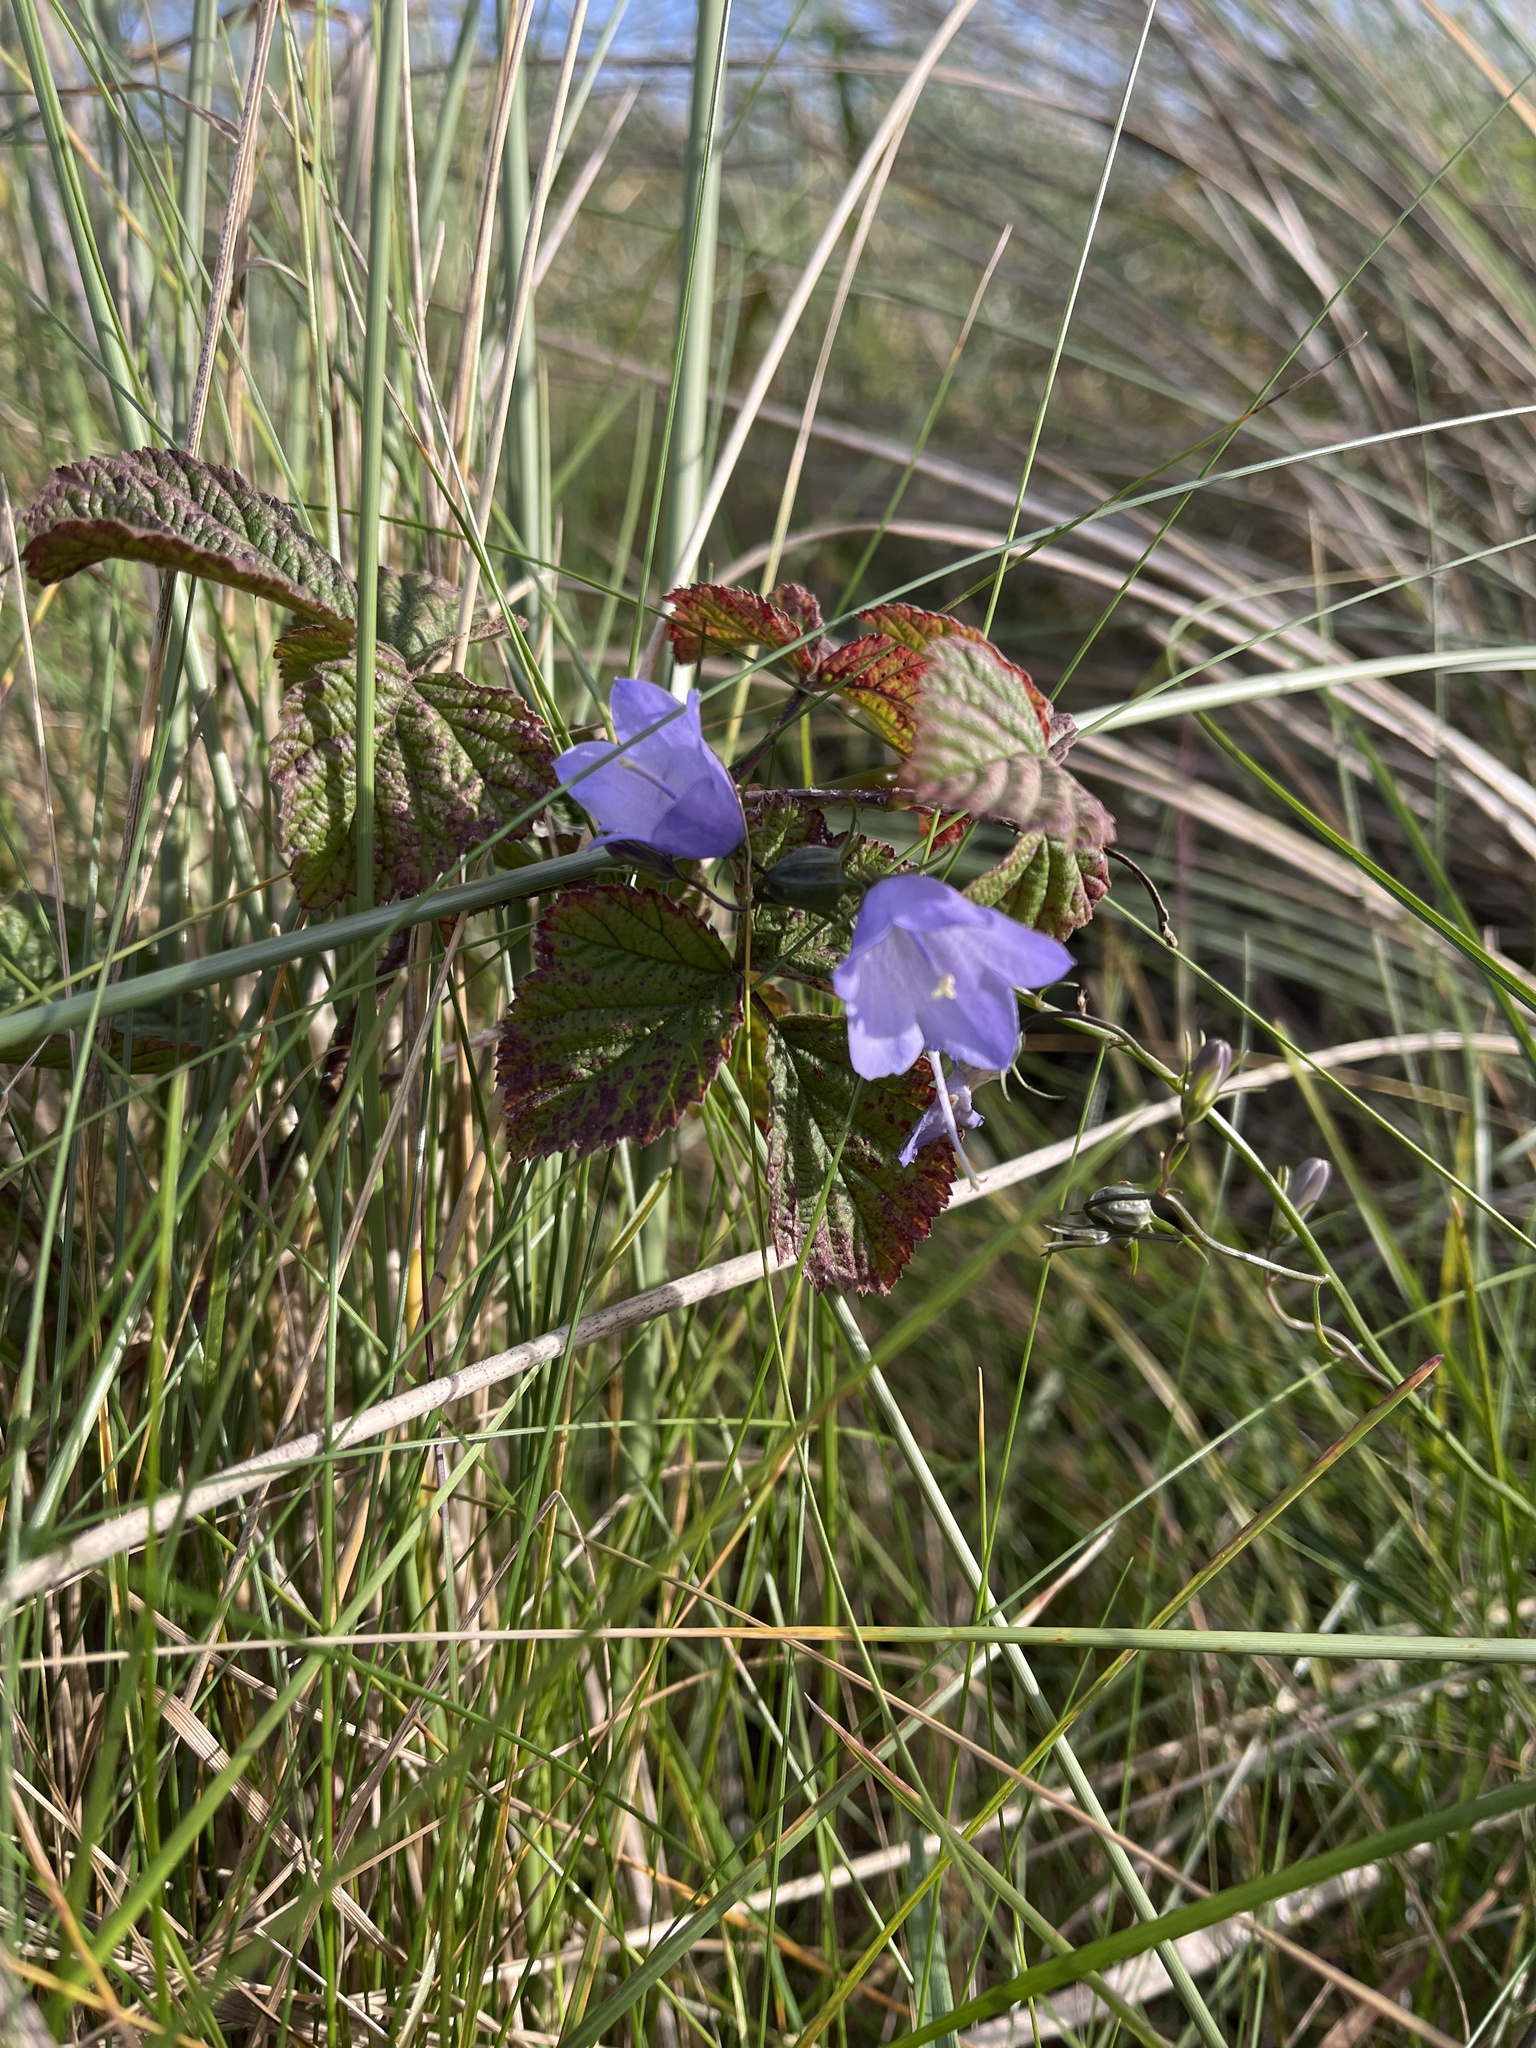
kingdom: Plantae
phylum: Tracheophyta
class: Magnoliopsida
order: Asterales
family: Campanulaceae
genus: Campanula
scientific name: Campanula rotundifolia
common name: Harebell
